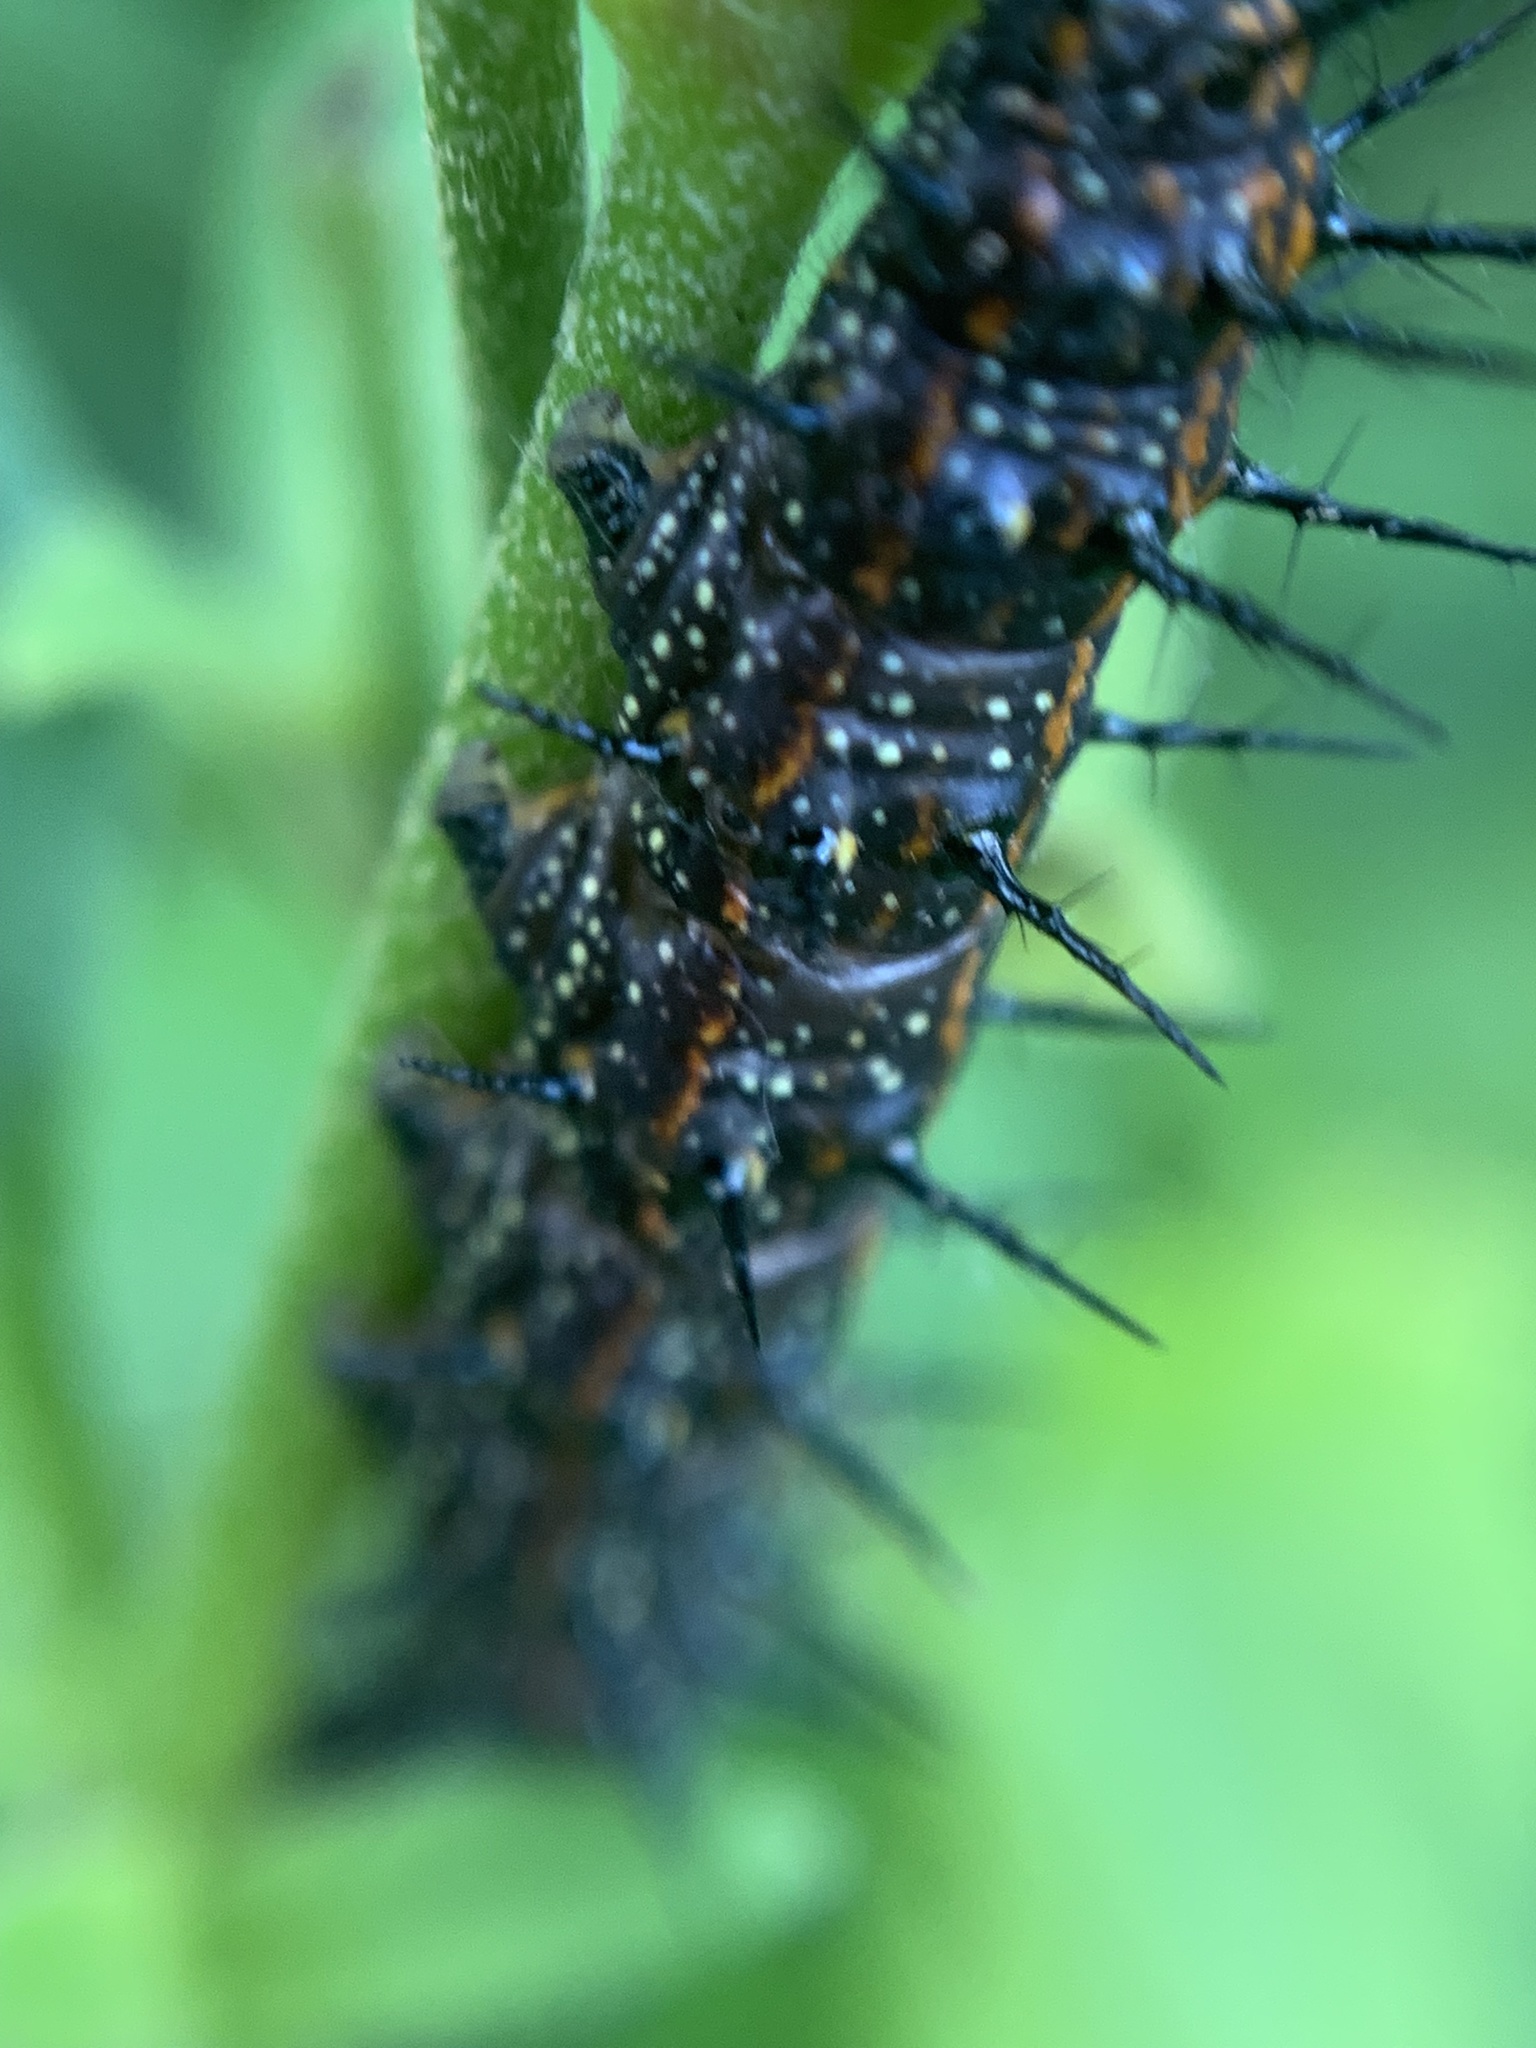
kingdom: Animalia
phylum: Arthropoda
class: Insecta
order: Lepidoptera
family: Nymphalidae
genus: Dione
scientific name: Dione vanillae
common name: Gulf fritillary
